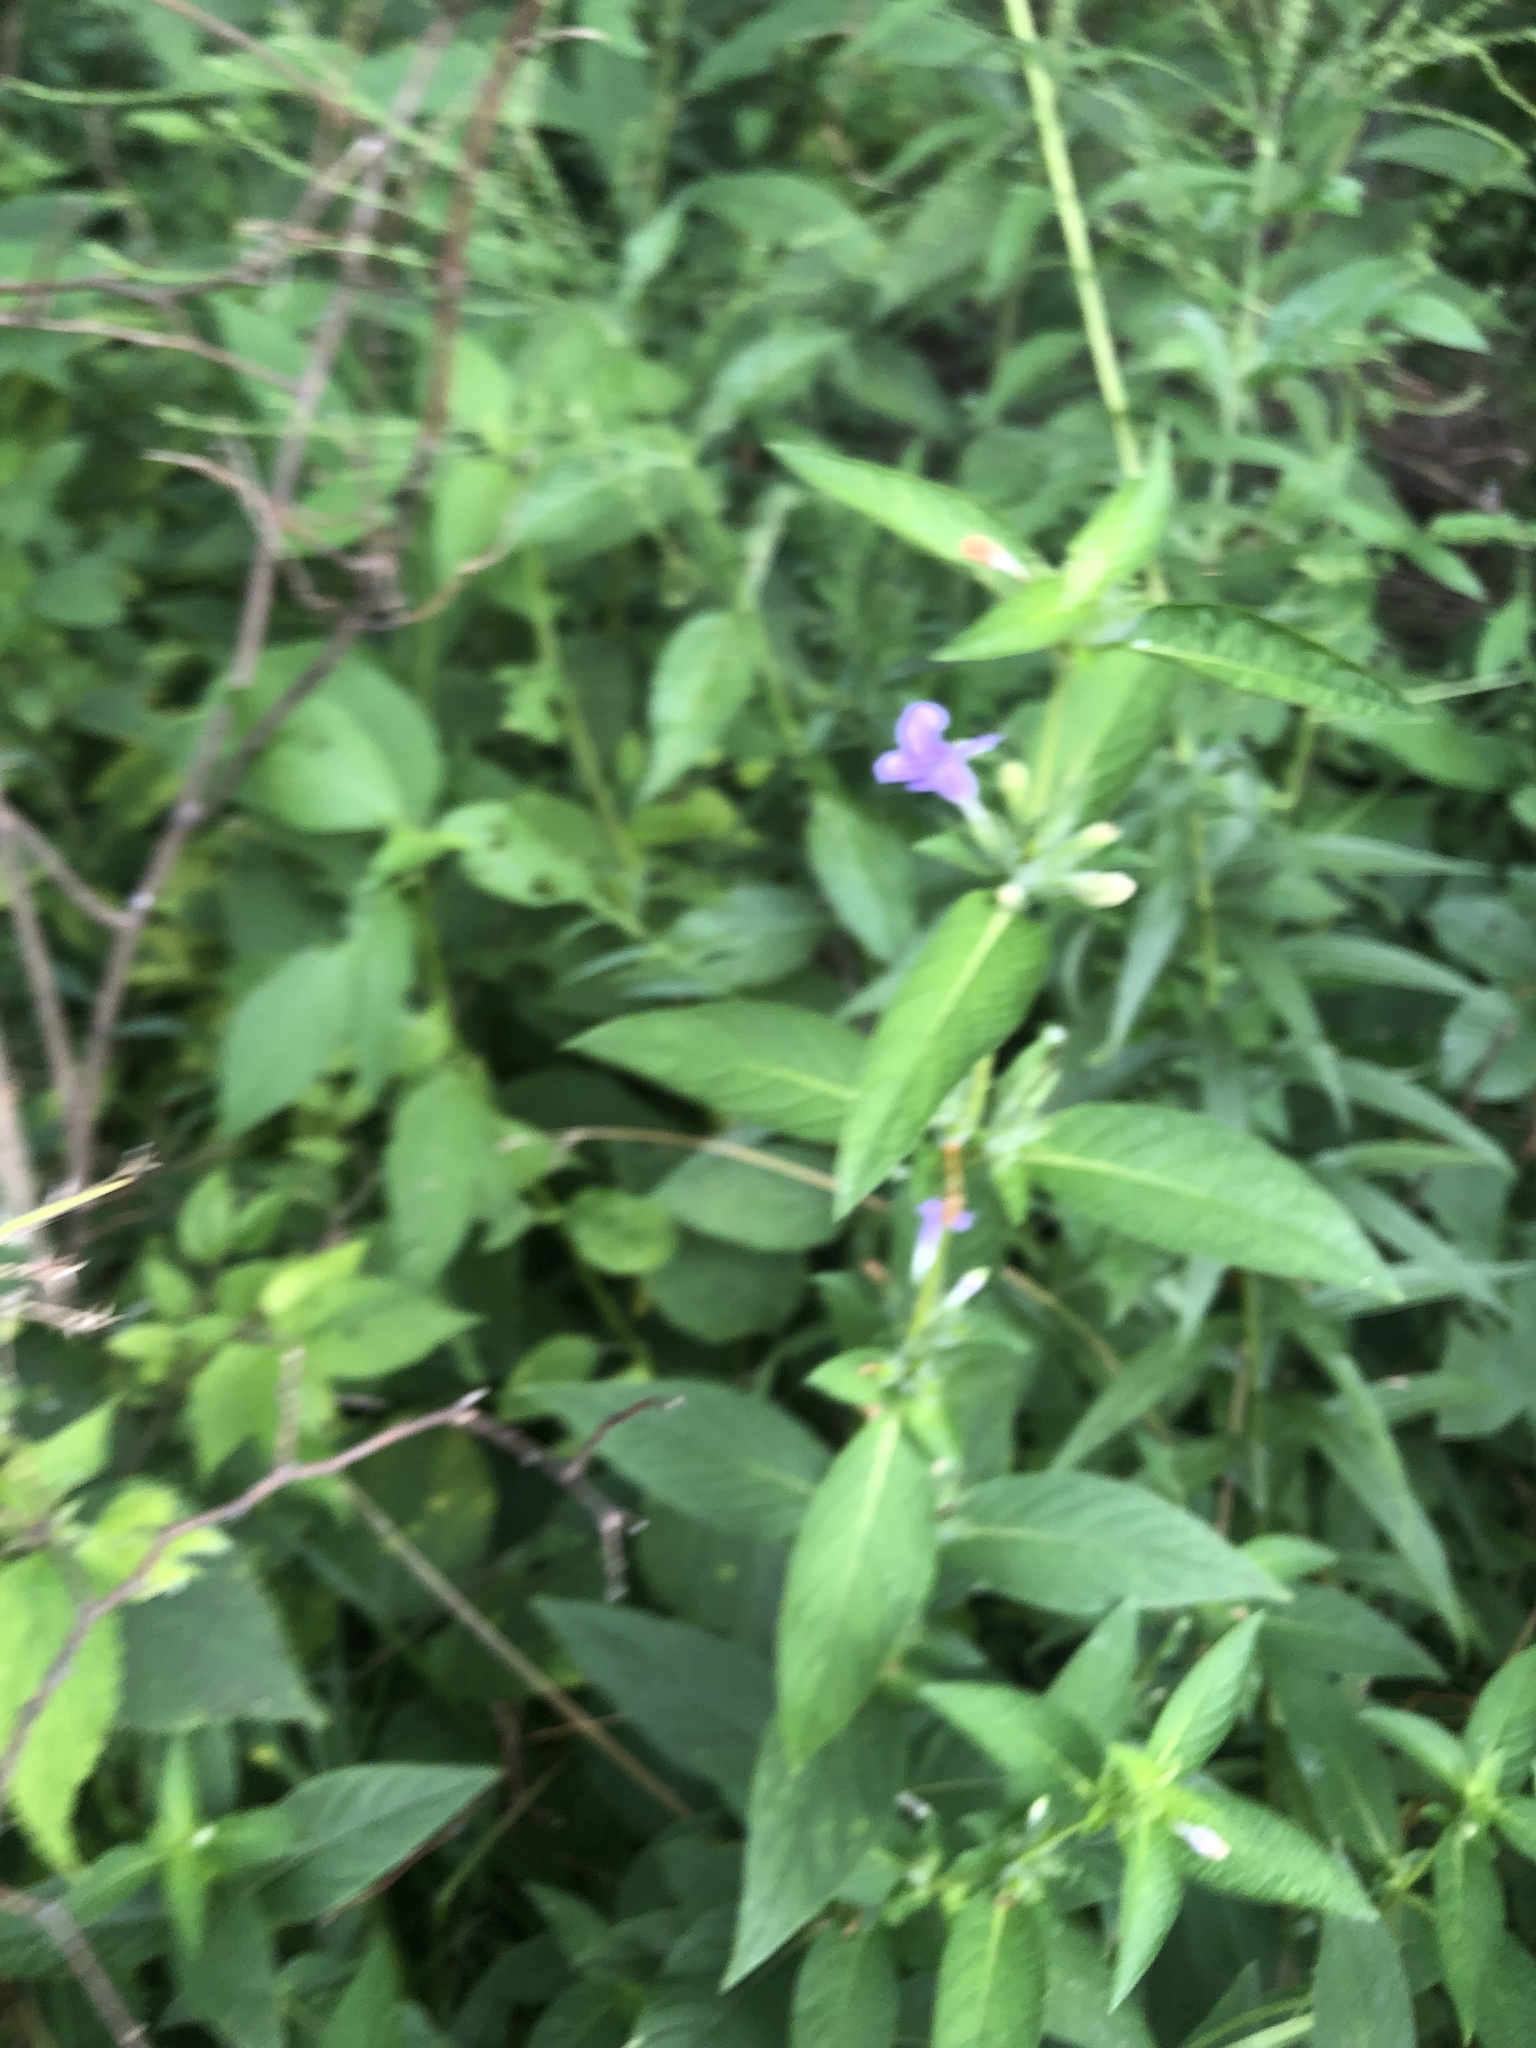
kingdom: Plantae
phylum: Tracheophyta
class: Magnoliopsida
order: Lamiales
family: Acanthaceae
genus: Ruellia
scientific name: Ruellia strepens
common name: Limestone wild petunia
